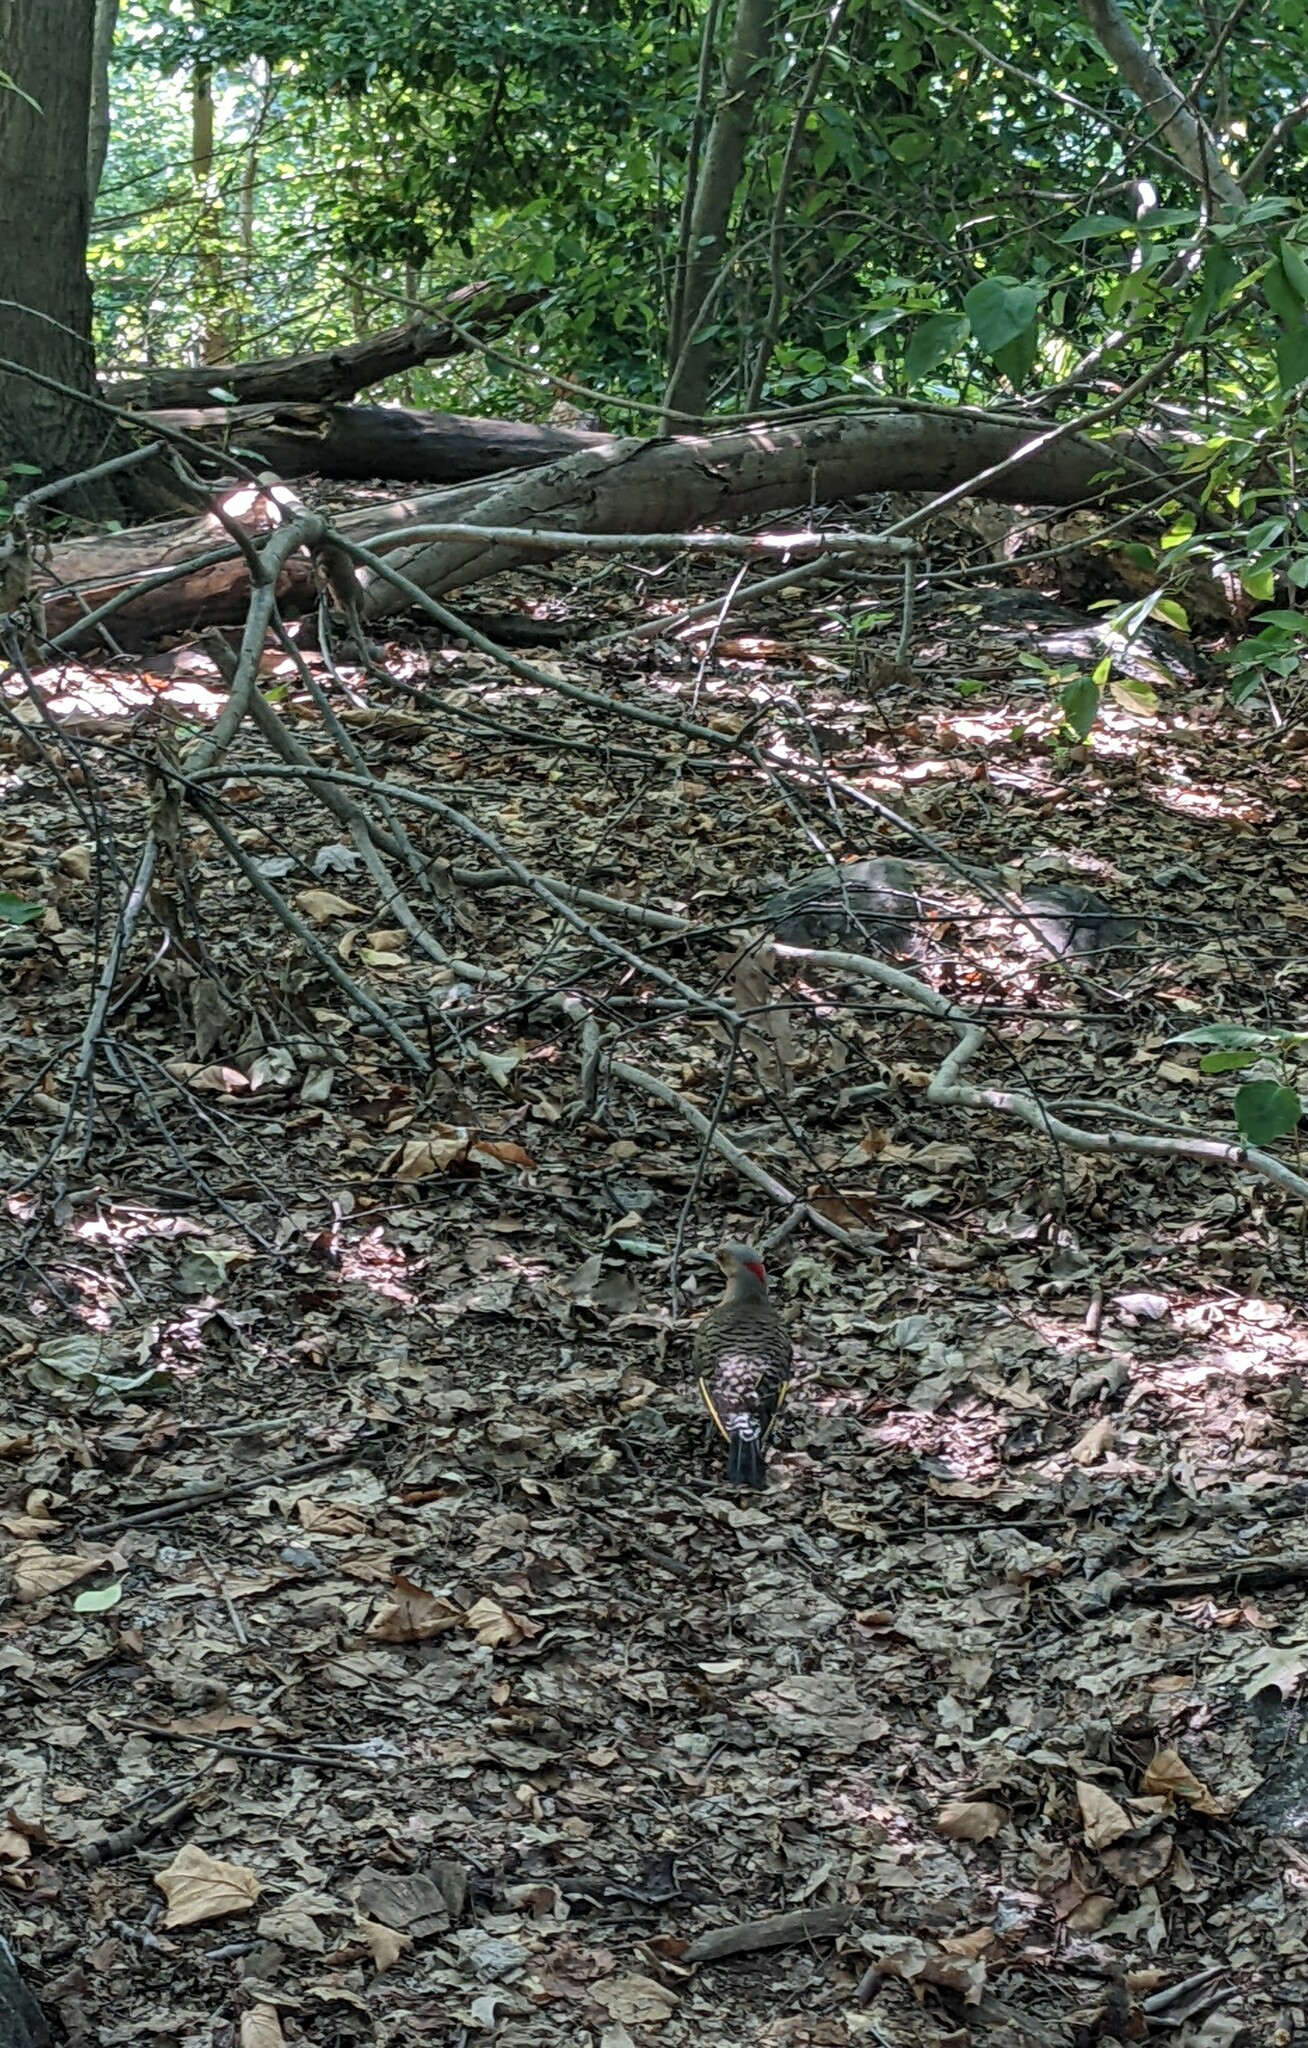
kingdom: Animalia
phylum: Chordata
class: Aves
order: Piciformes
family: Picidae
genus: Colaptes
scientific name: Colaptes auratus
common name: Northern flicker
